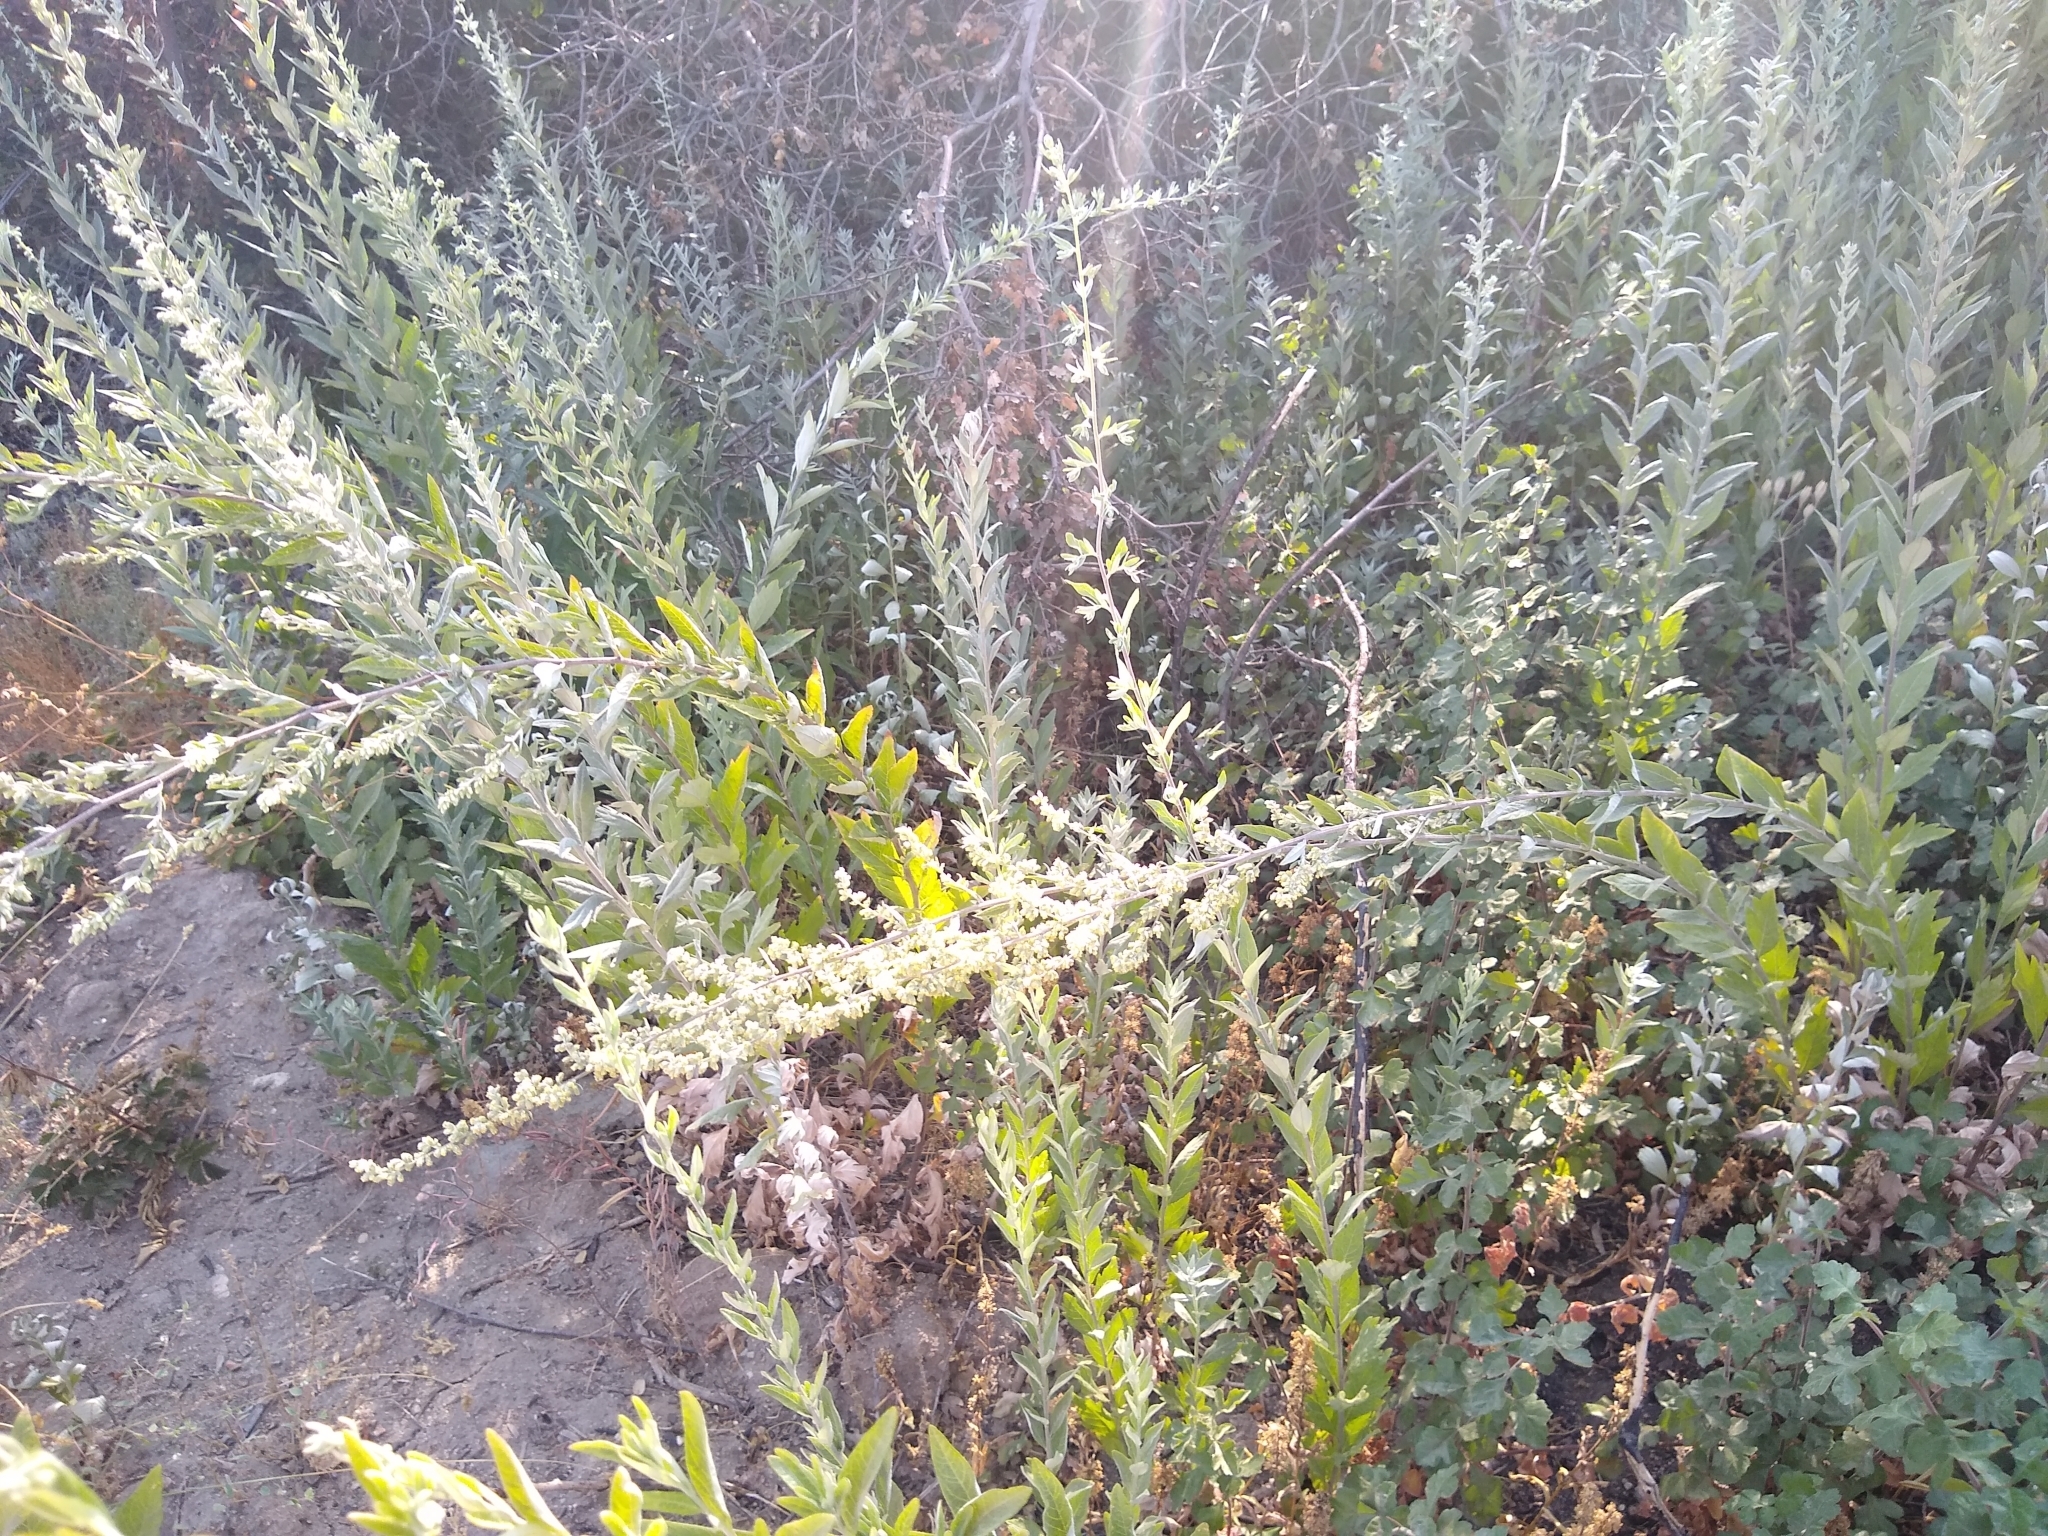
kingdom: Plantae
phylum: Tracheophyta
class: Magnoliopsida
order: Asterales
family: Asteraceae
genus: Artemisia
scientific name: Artemisia douglasiana
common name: Northwest mugwort
